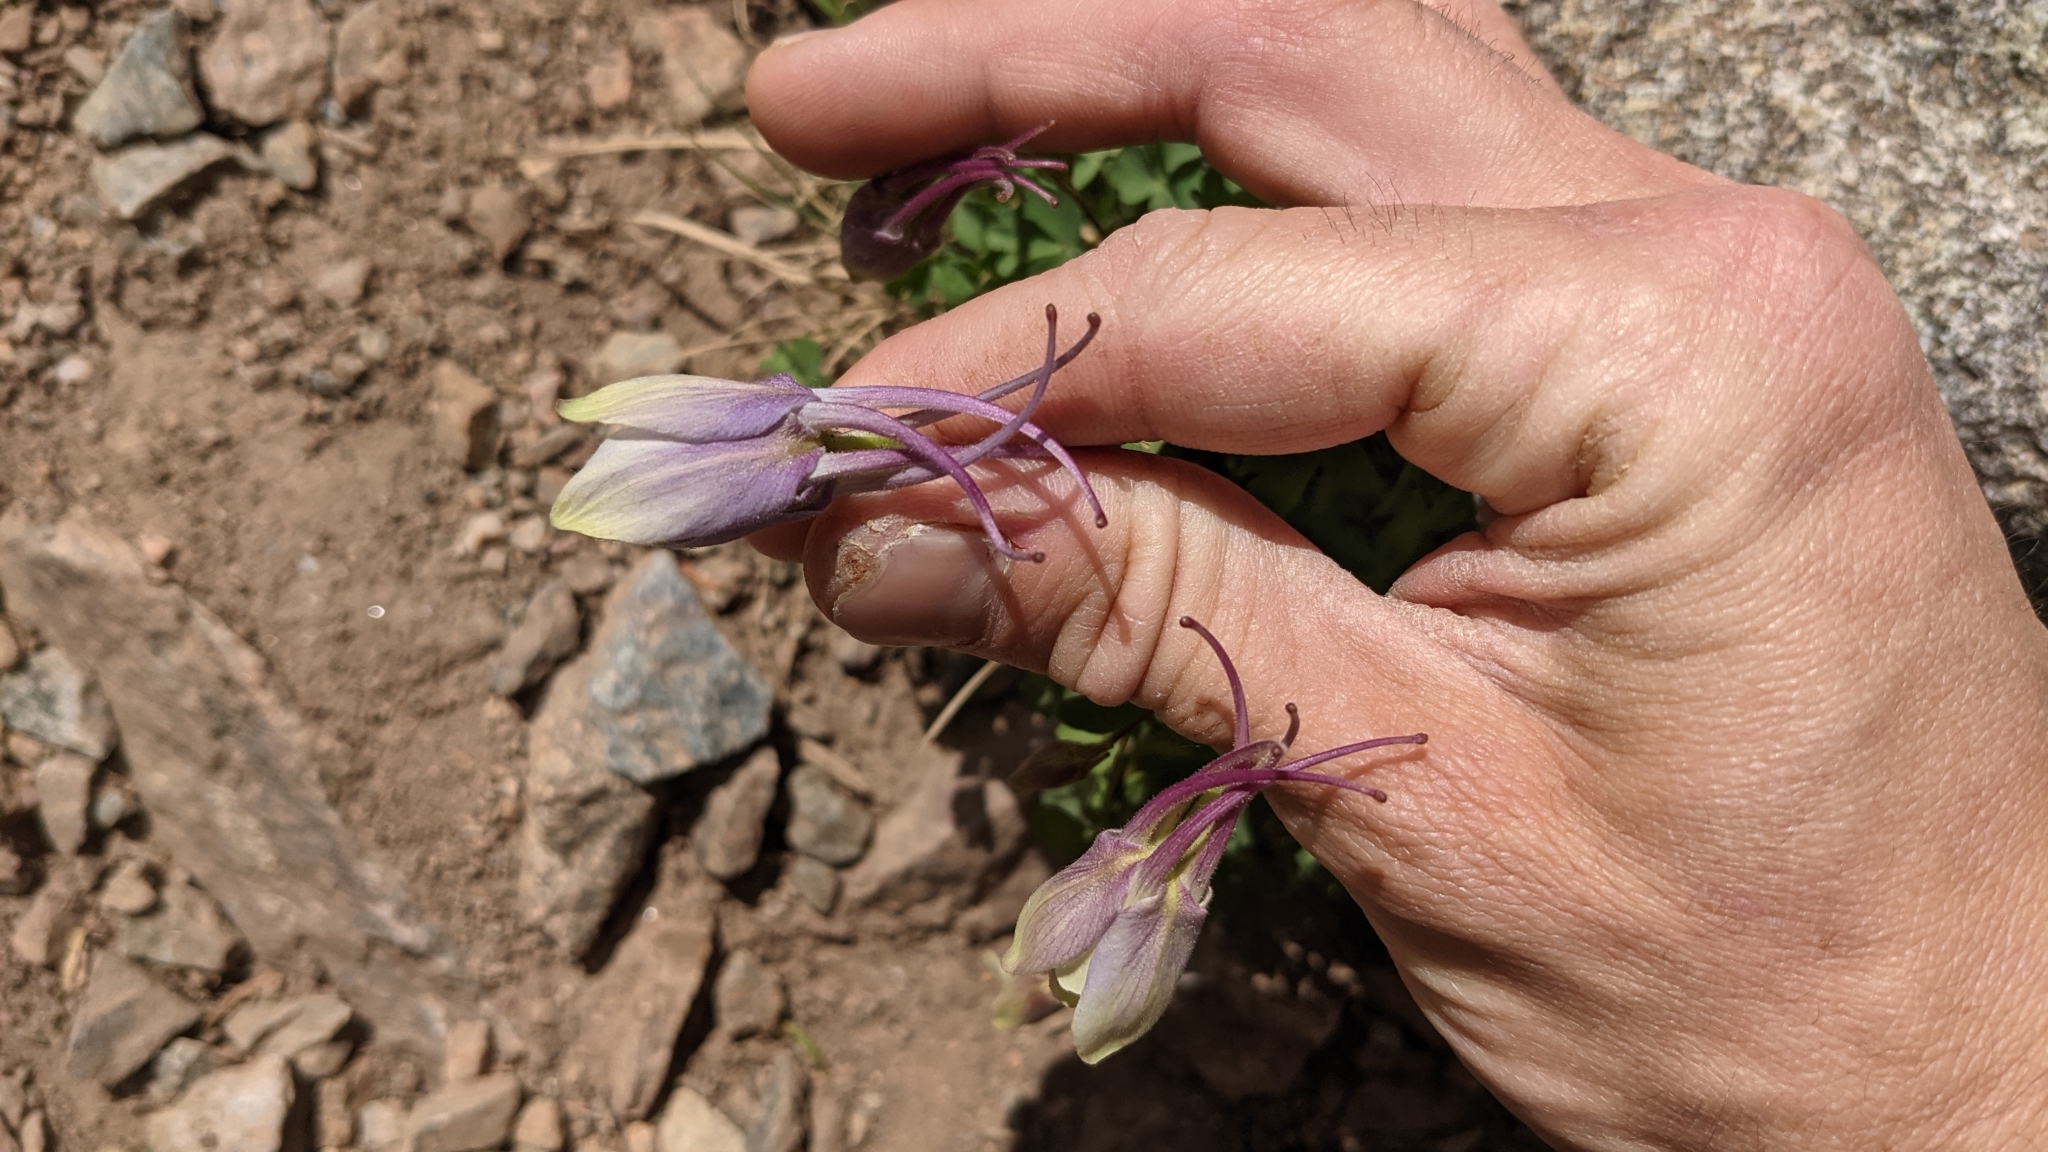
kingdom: Plantae
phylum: Tracheophyta
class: Magnoliopsida
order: Ranunculales
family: Ranunculaceae
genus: Aquilegia
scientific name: Aquilegia coerulea
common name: Rocky mountain columbine
